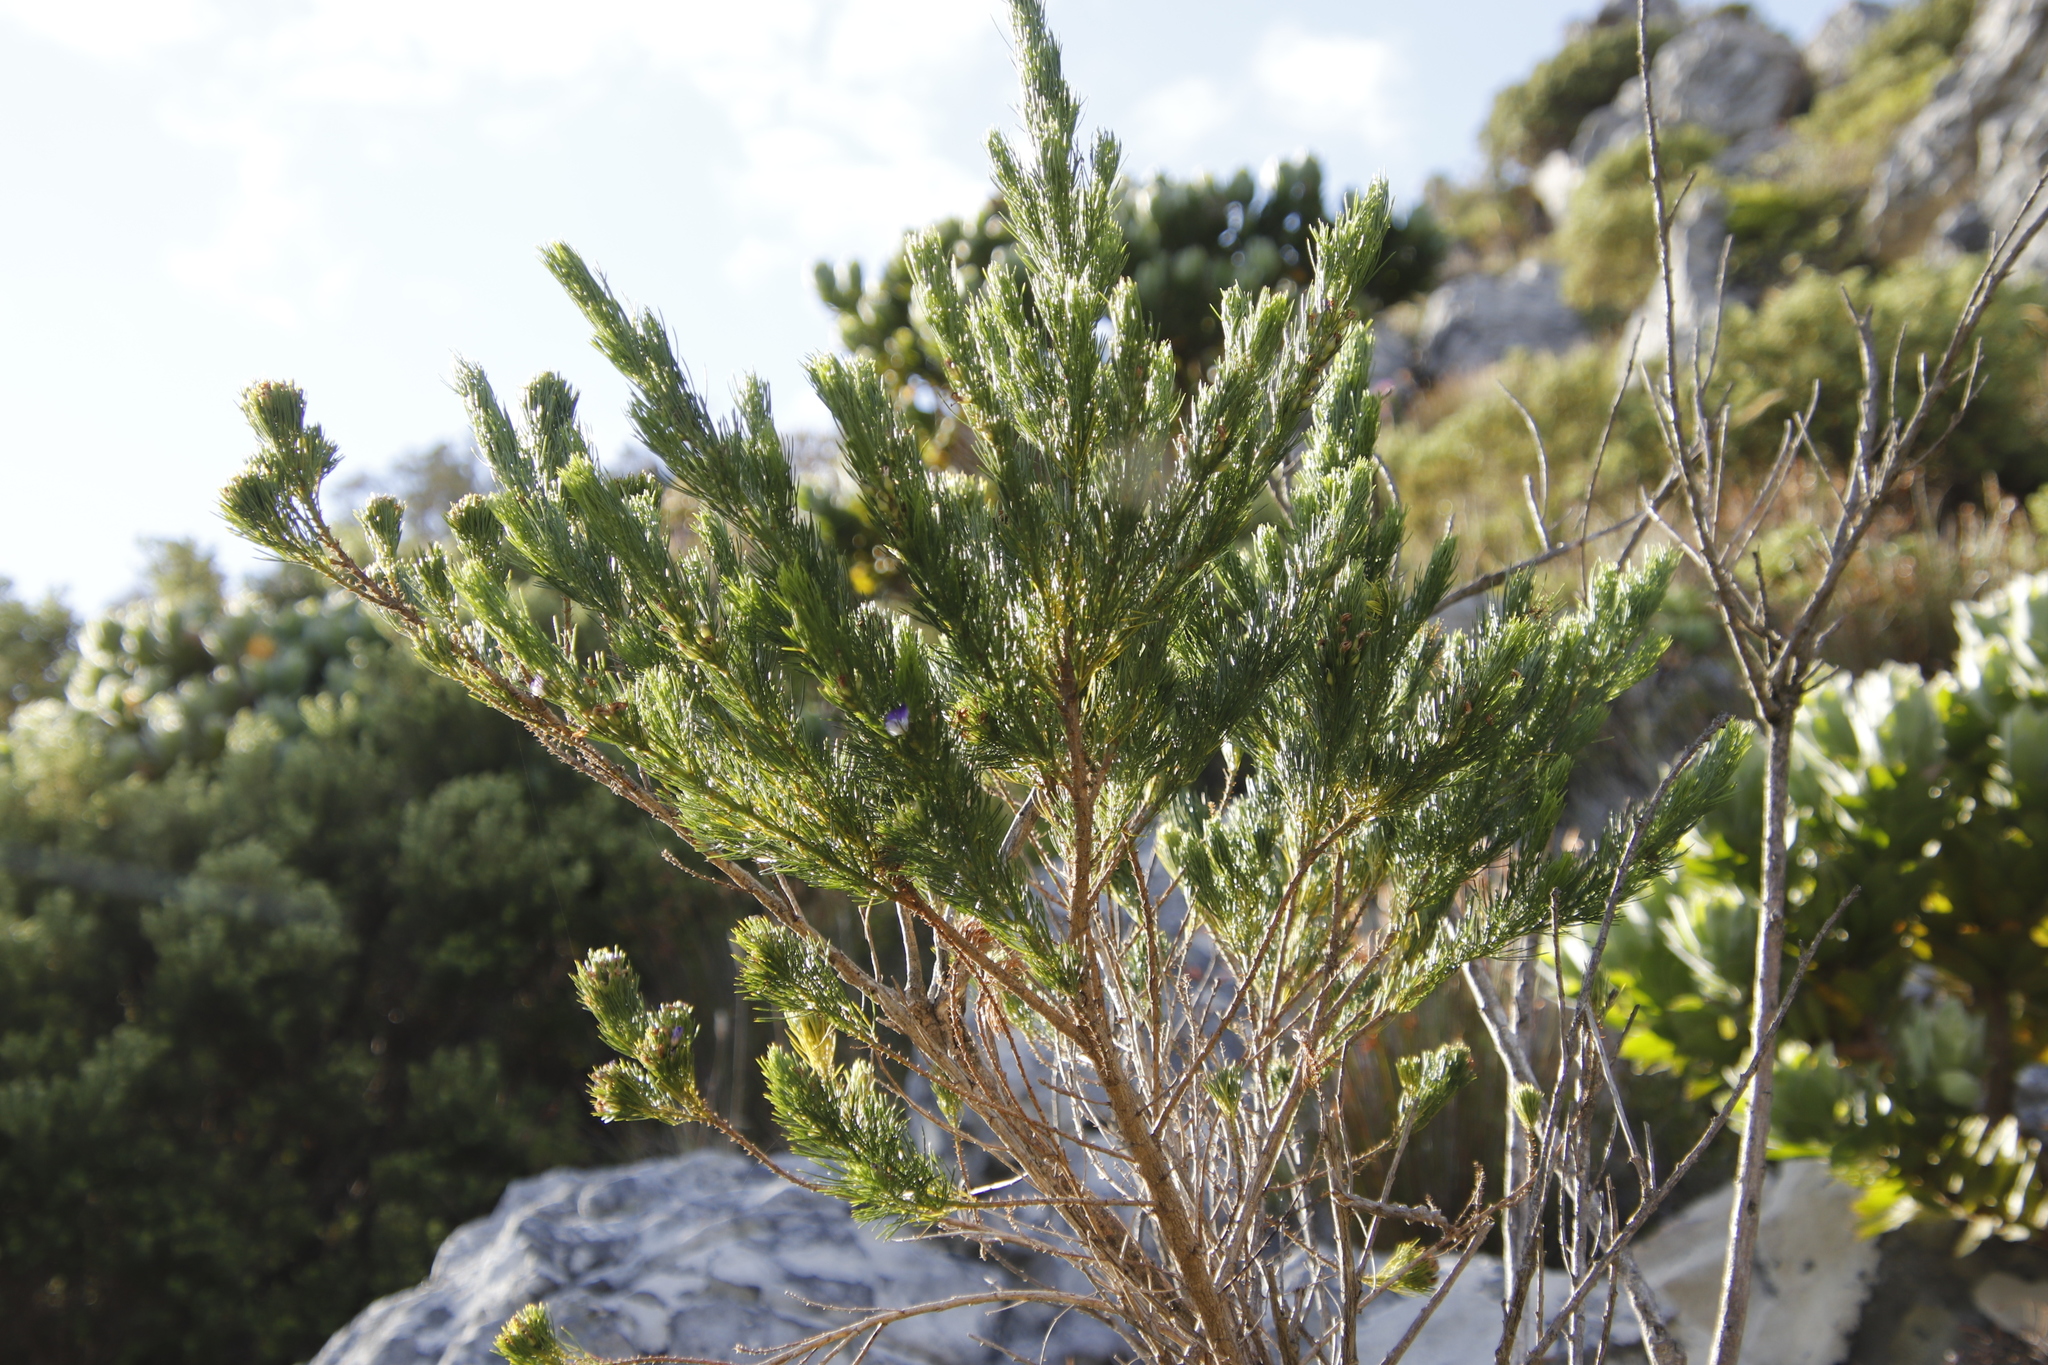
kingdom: Plantae
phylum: Tracheophyta
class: Magnoliopsida
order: Fabales
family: Fabaceae
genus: Psoralea
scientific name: Psoralea pinnata
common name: African scurfpea
